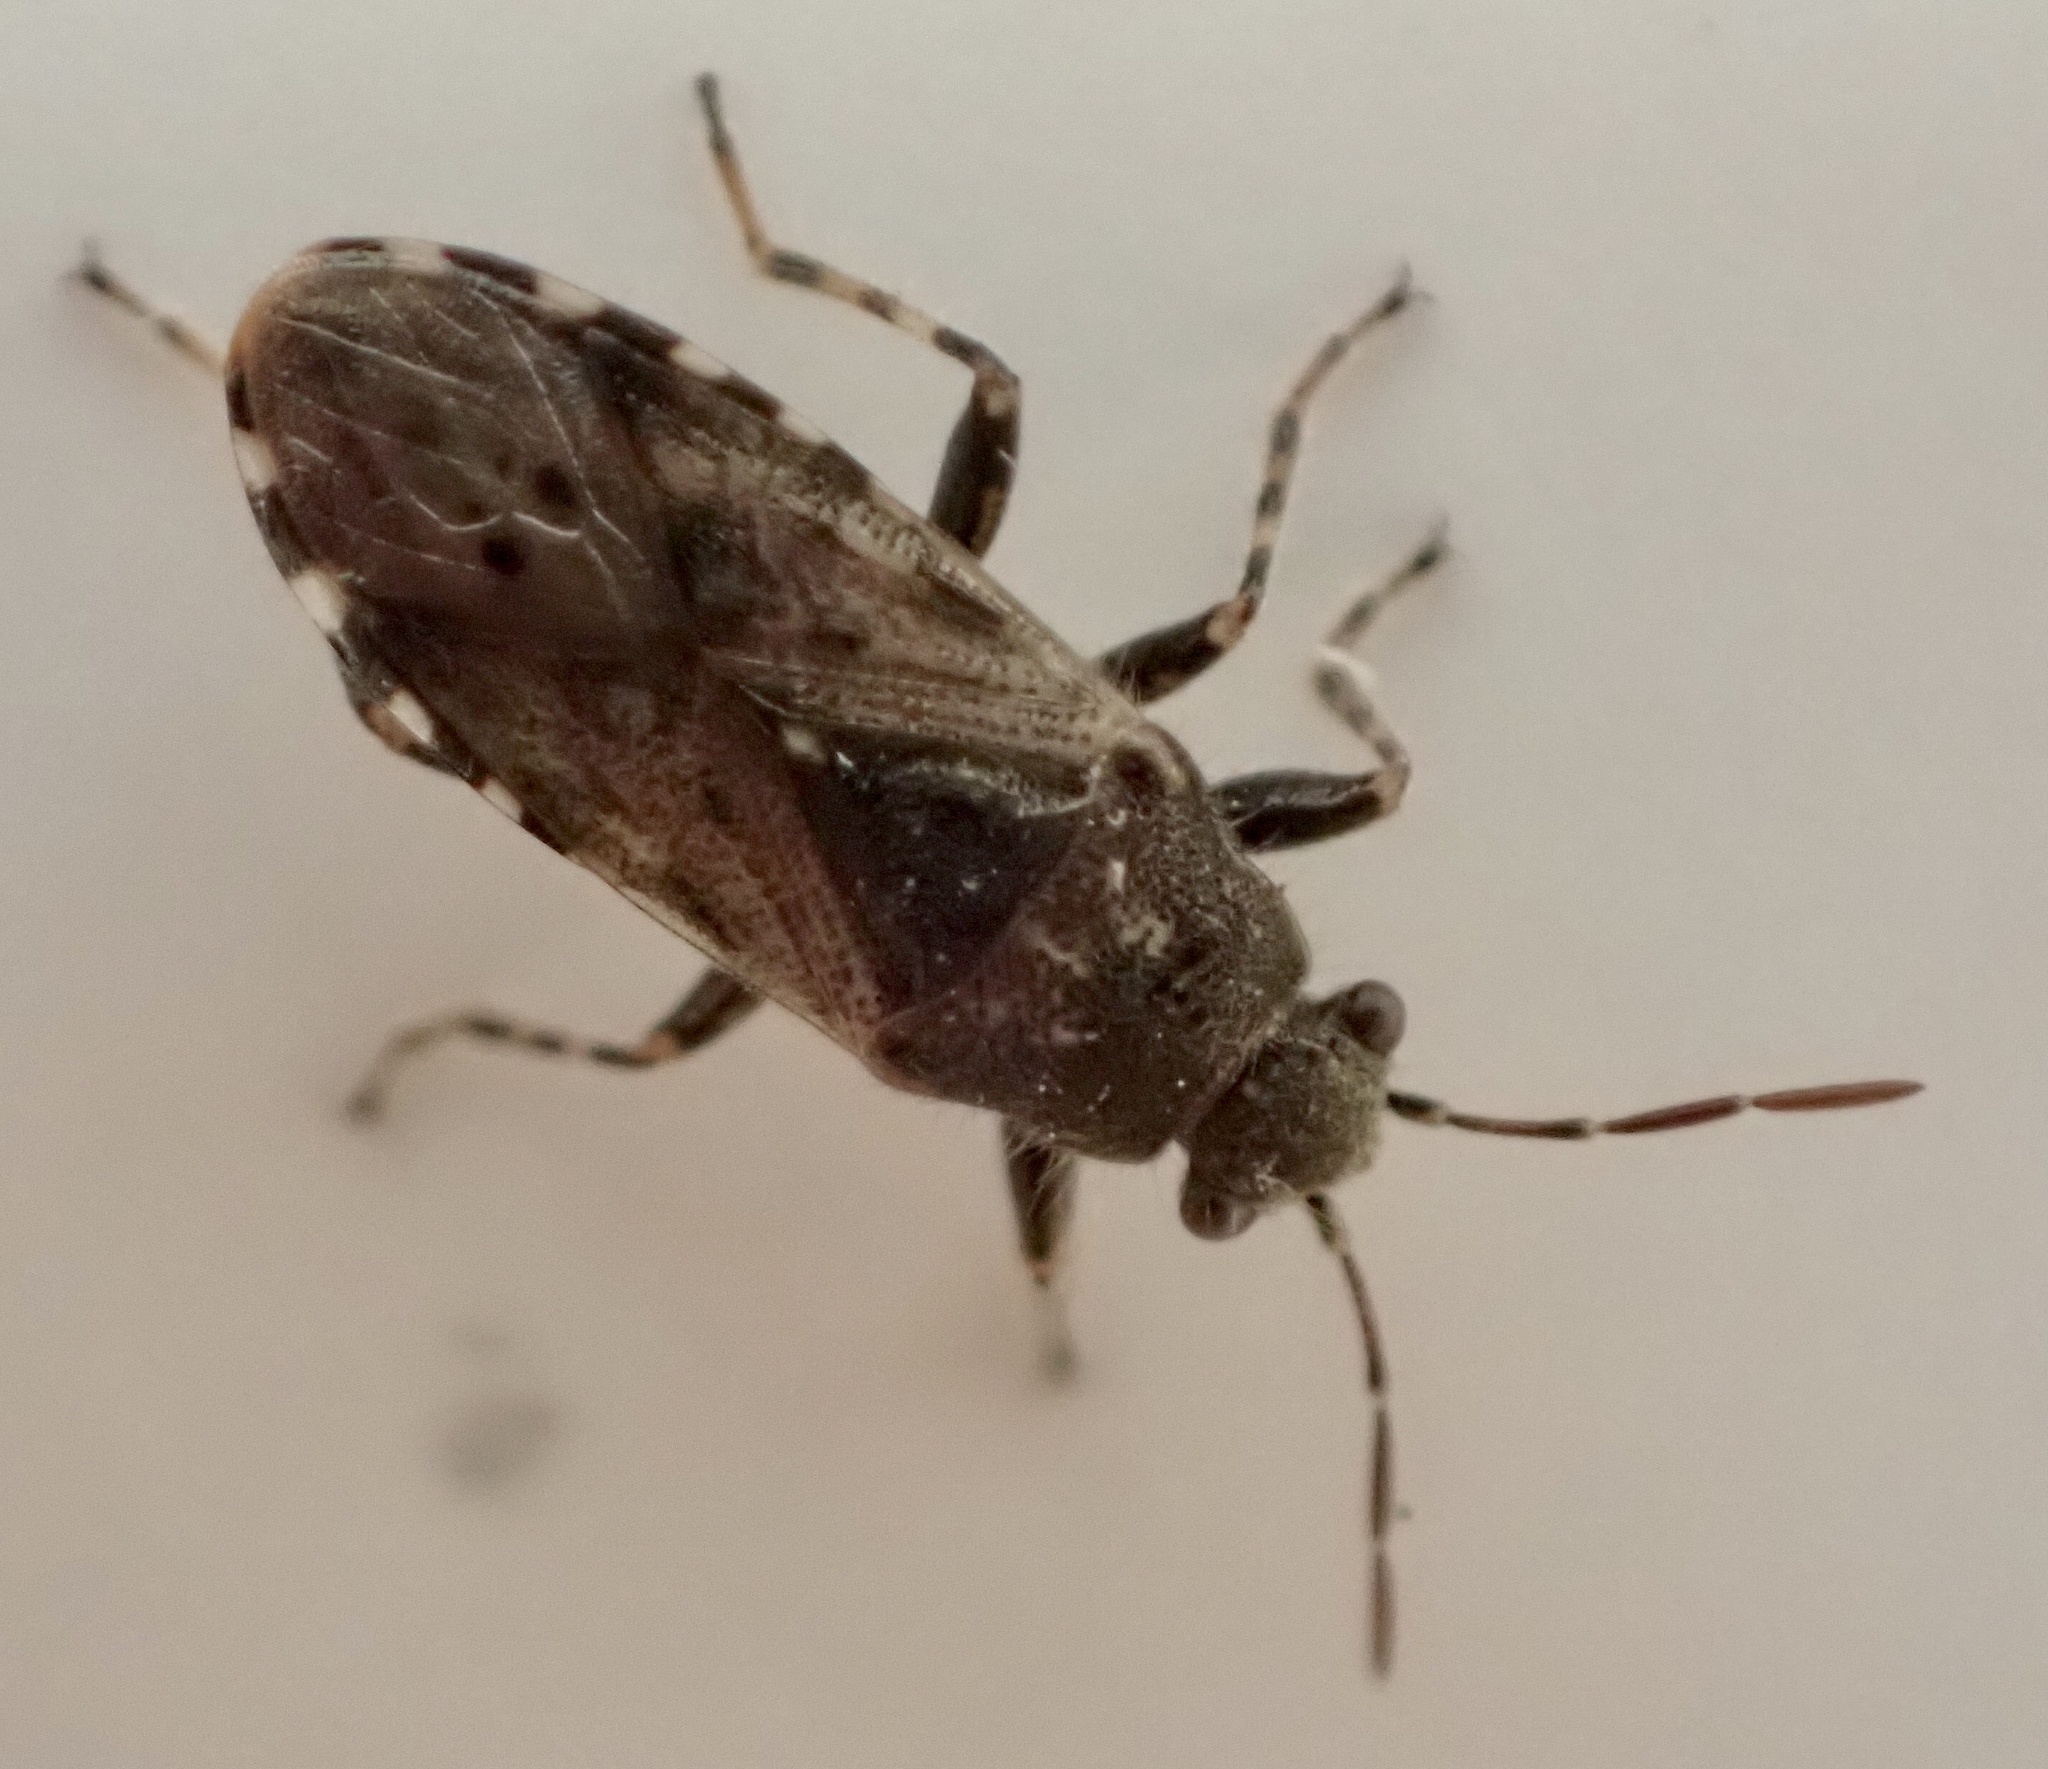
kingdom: Animalia
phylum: Arthropoda
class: Insecta
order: Hemiptera
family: Heterogastridae
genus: Heterogaster
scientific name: Heterogaster urticae
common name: Seed bug
